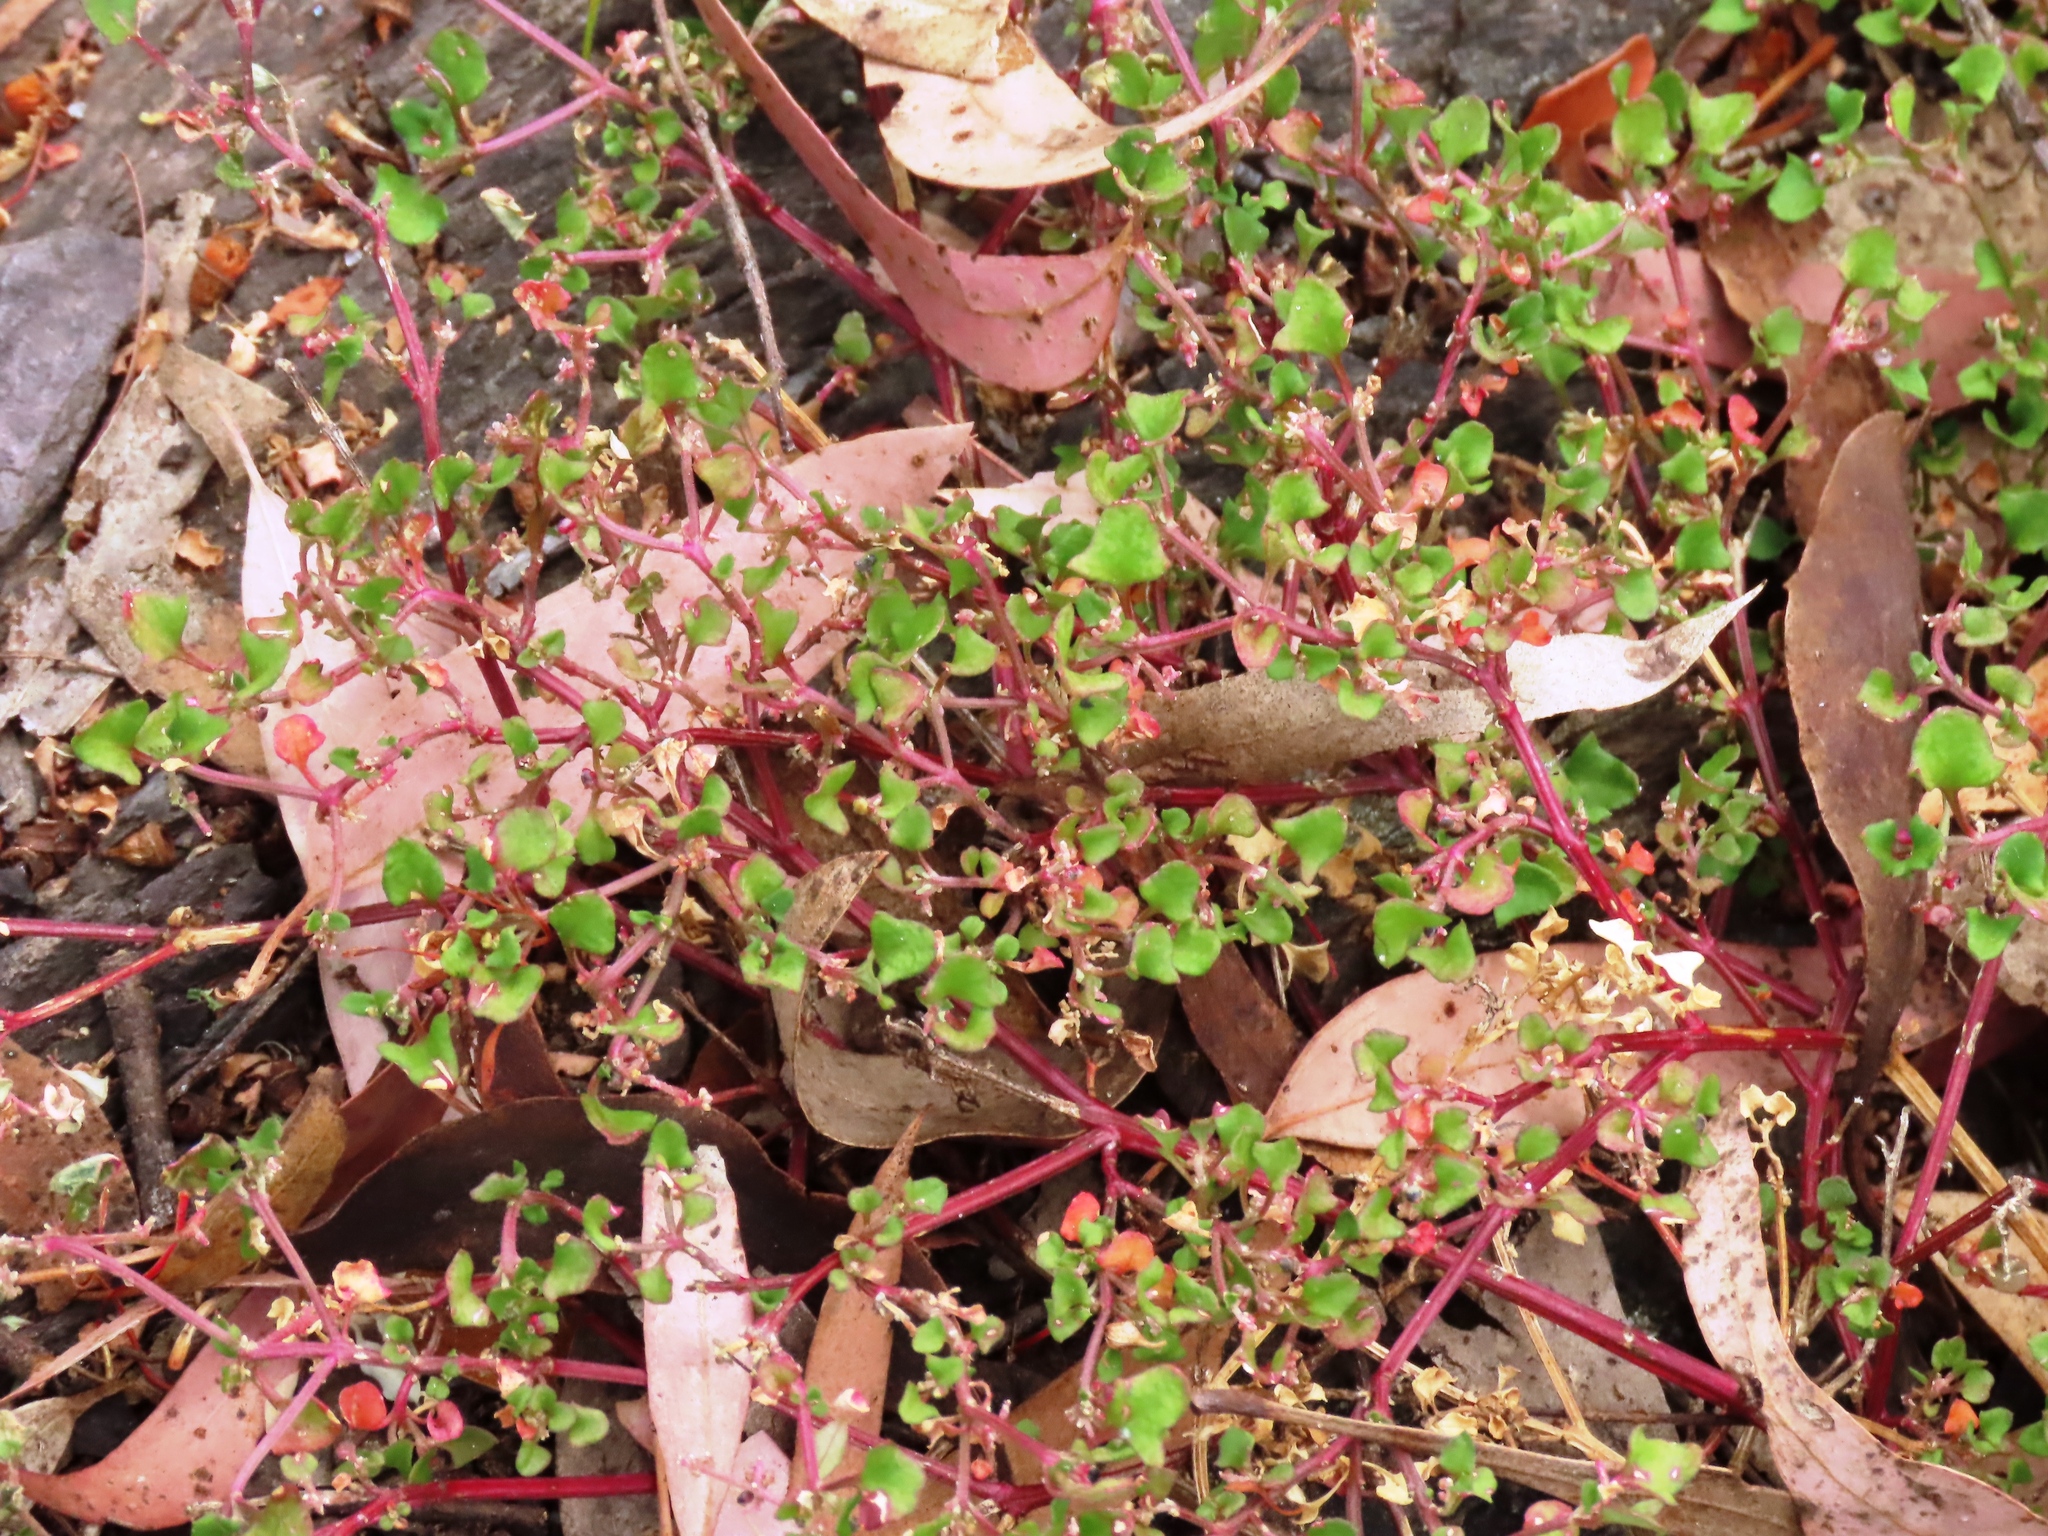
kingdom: Plantae
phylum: Tracheophyta
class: Magnoliopsida
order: Caryophyllales
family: Amaranthaceae
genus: Chenopodium
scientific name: Chenopodium robertianum
